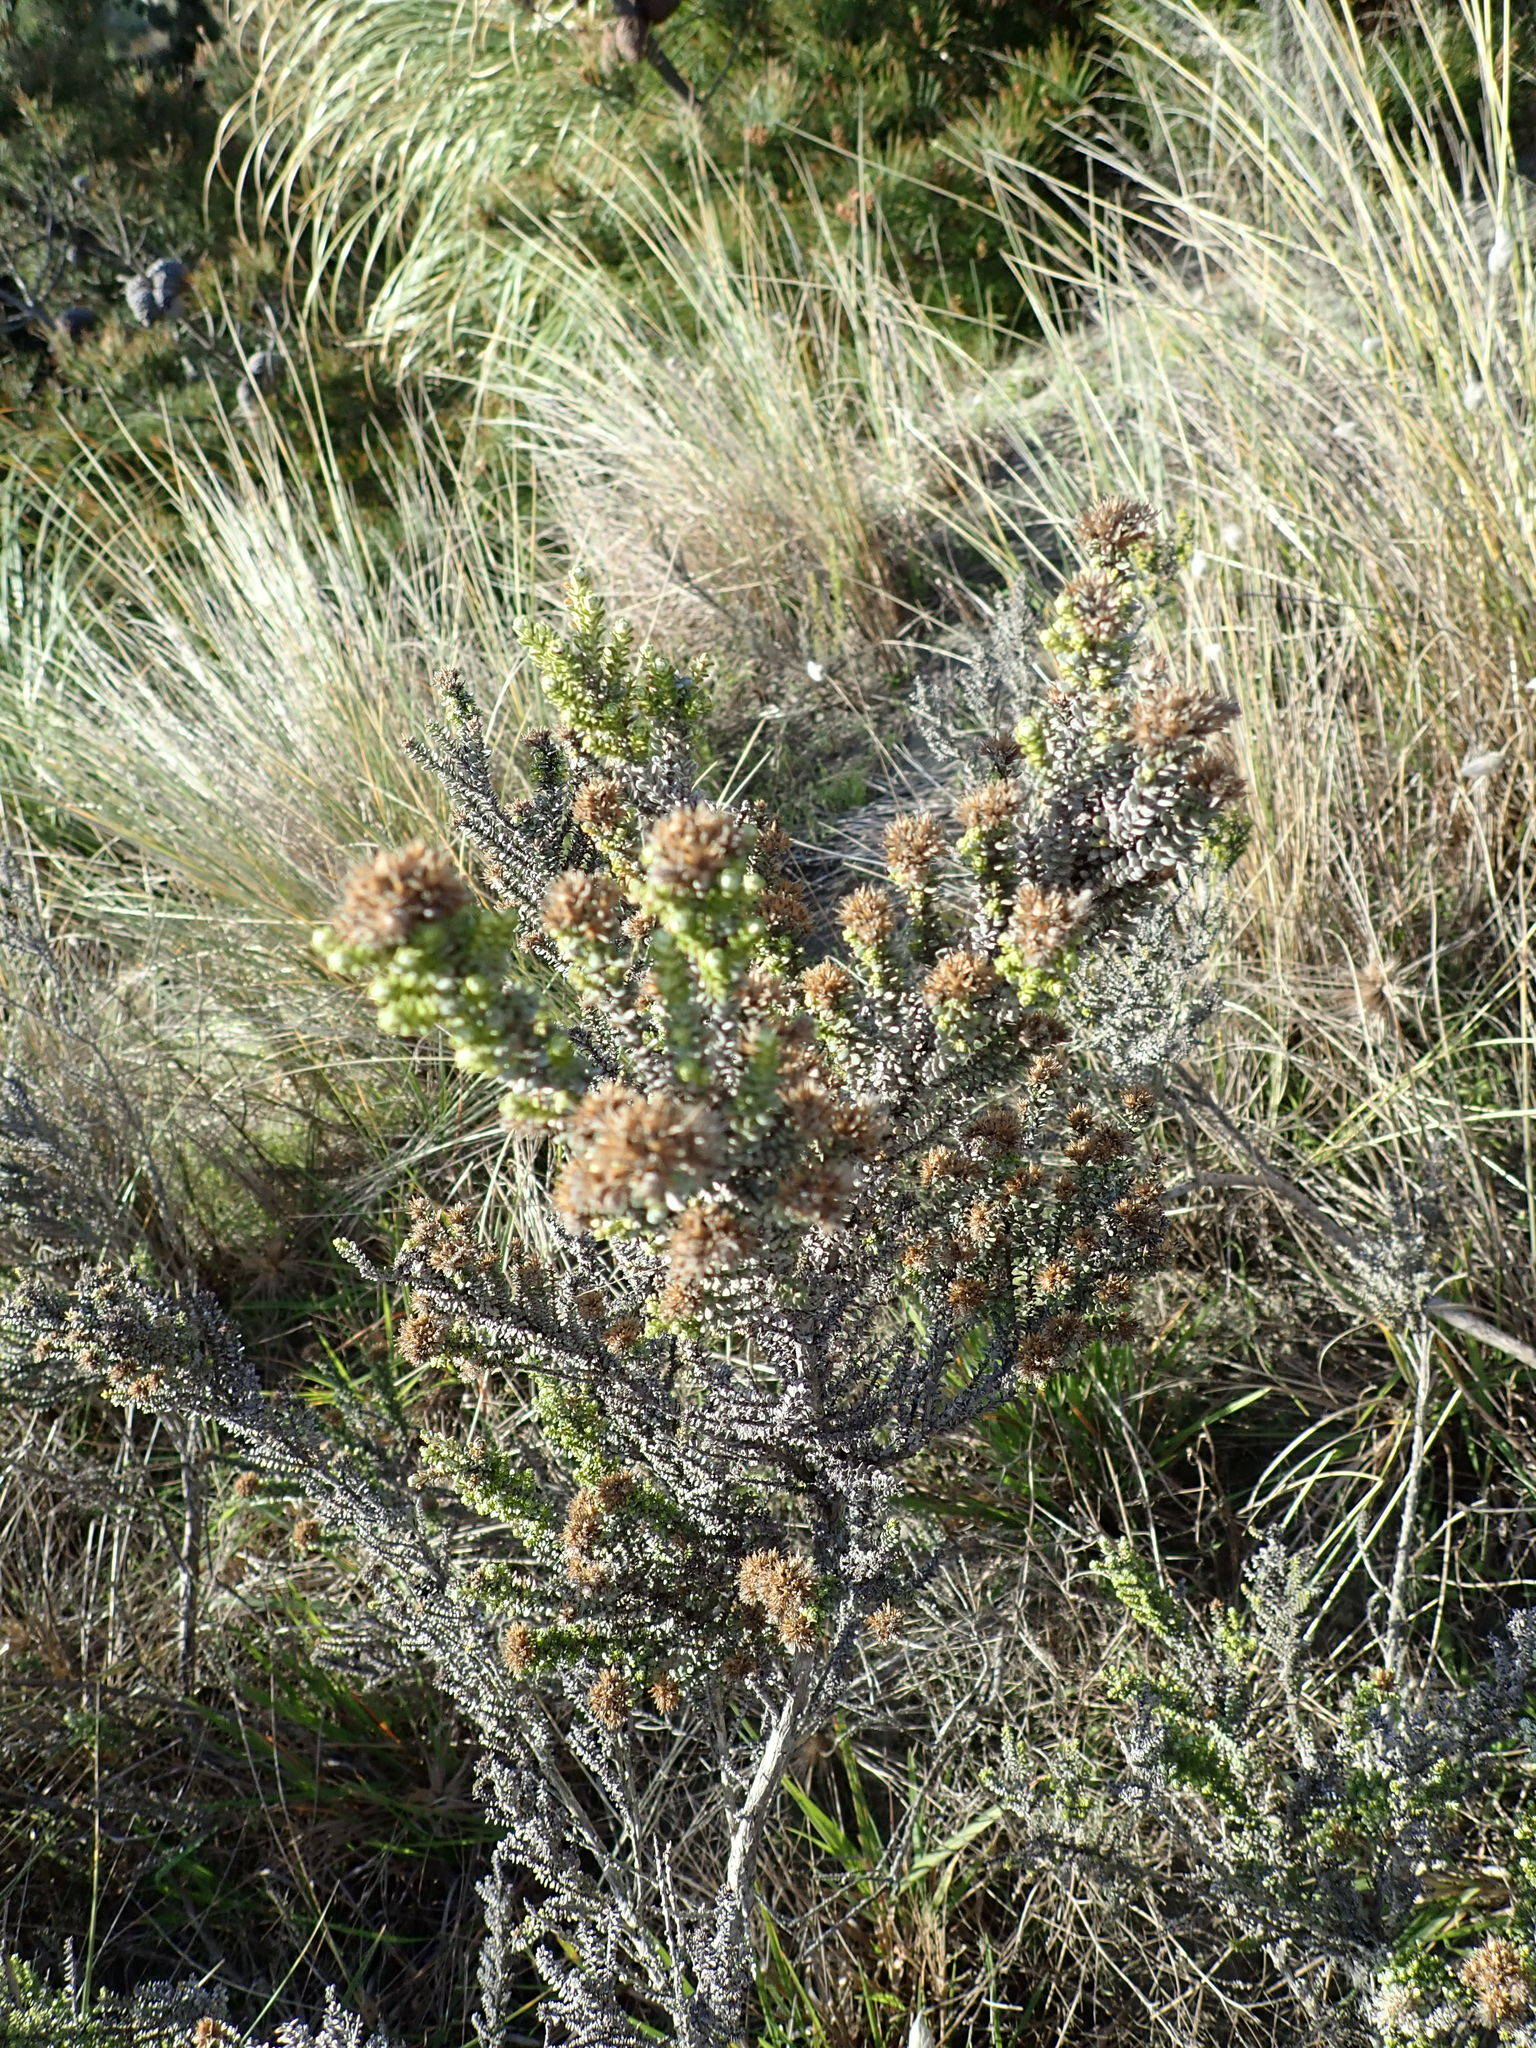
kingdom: Plantae
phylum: Tracheophyta
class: Magnoliopsida
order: Asterales
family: Asteraceae
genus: Ozothamnus
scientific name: Ozothamnus leptophyllus
